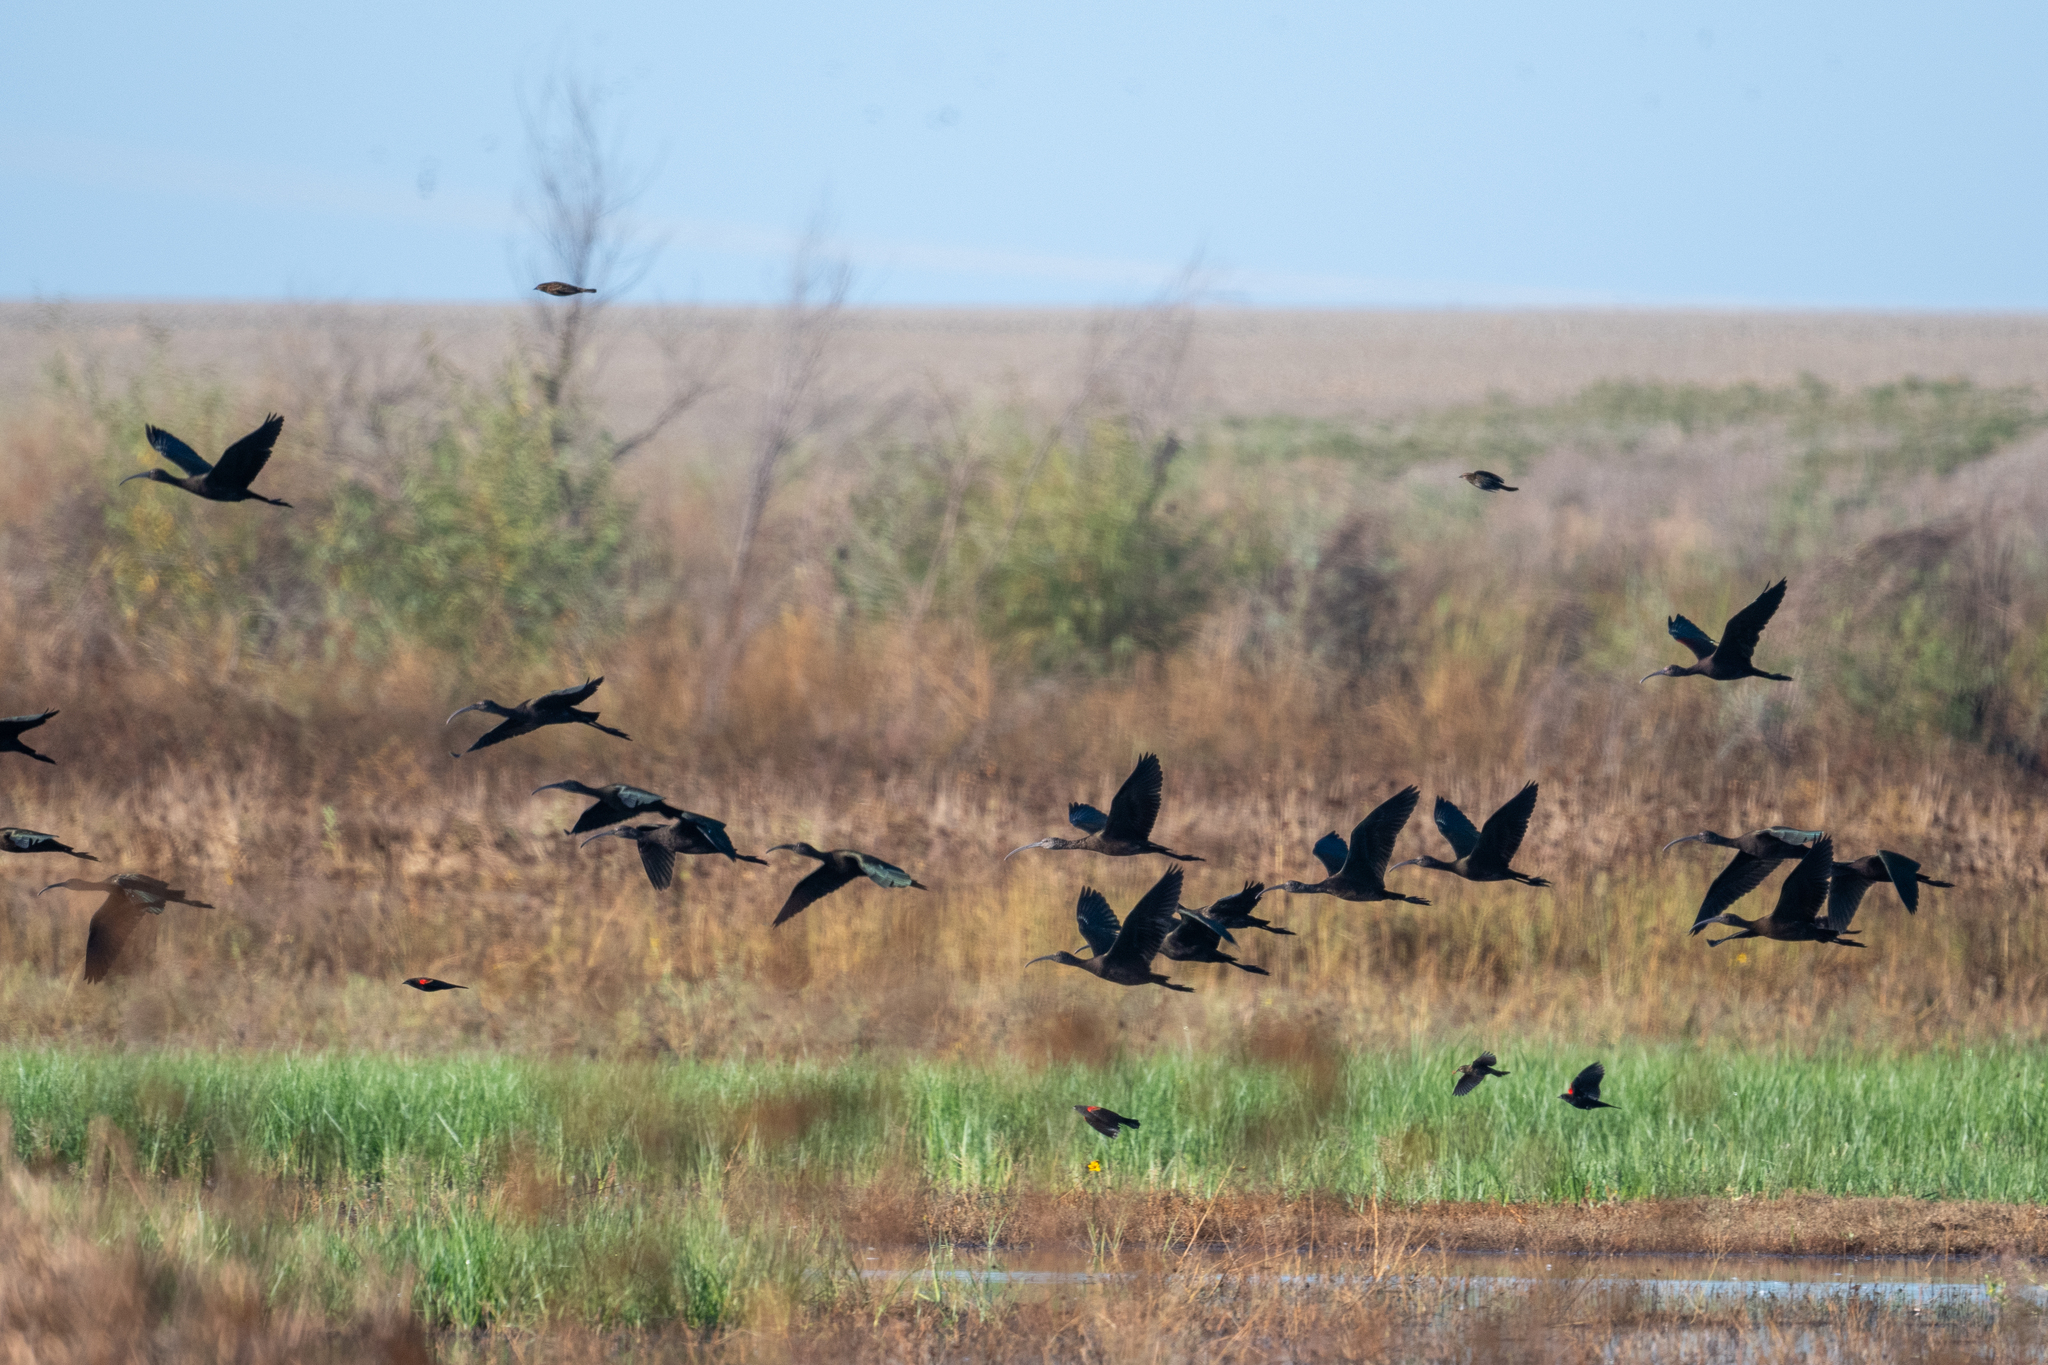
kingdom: Animalia
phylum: Chordata
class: Aves
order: Pelecaniformes
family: Threskiornithidae
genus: Plegadis
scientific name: Plegadis chihi
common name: White-faced ibis
